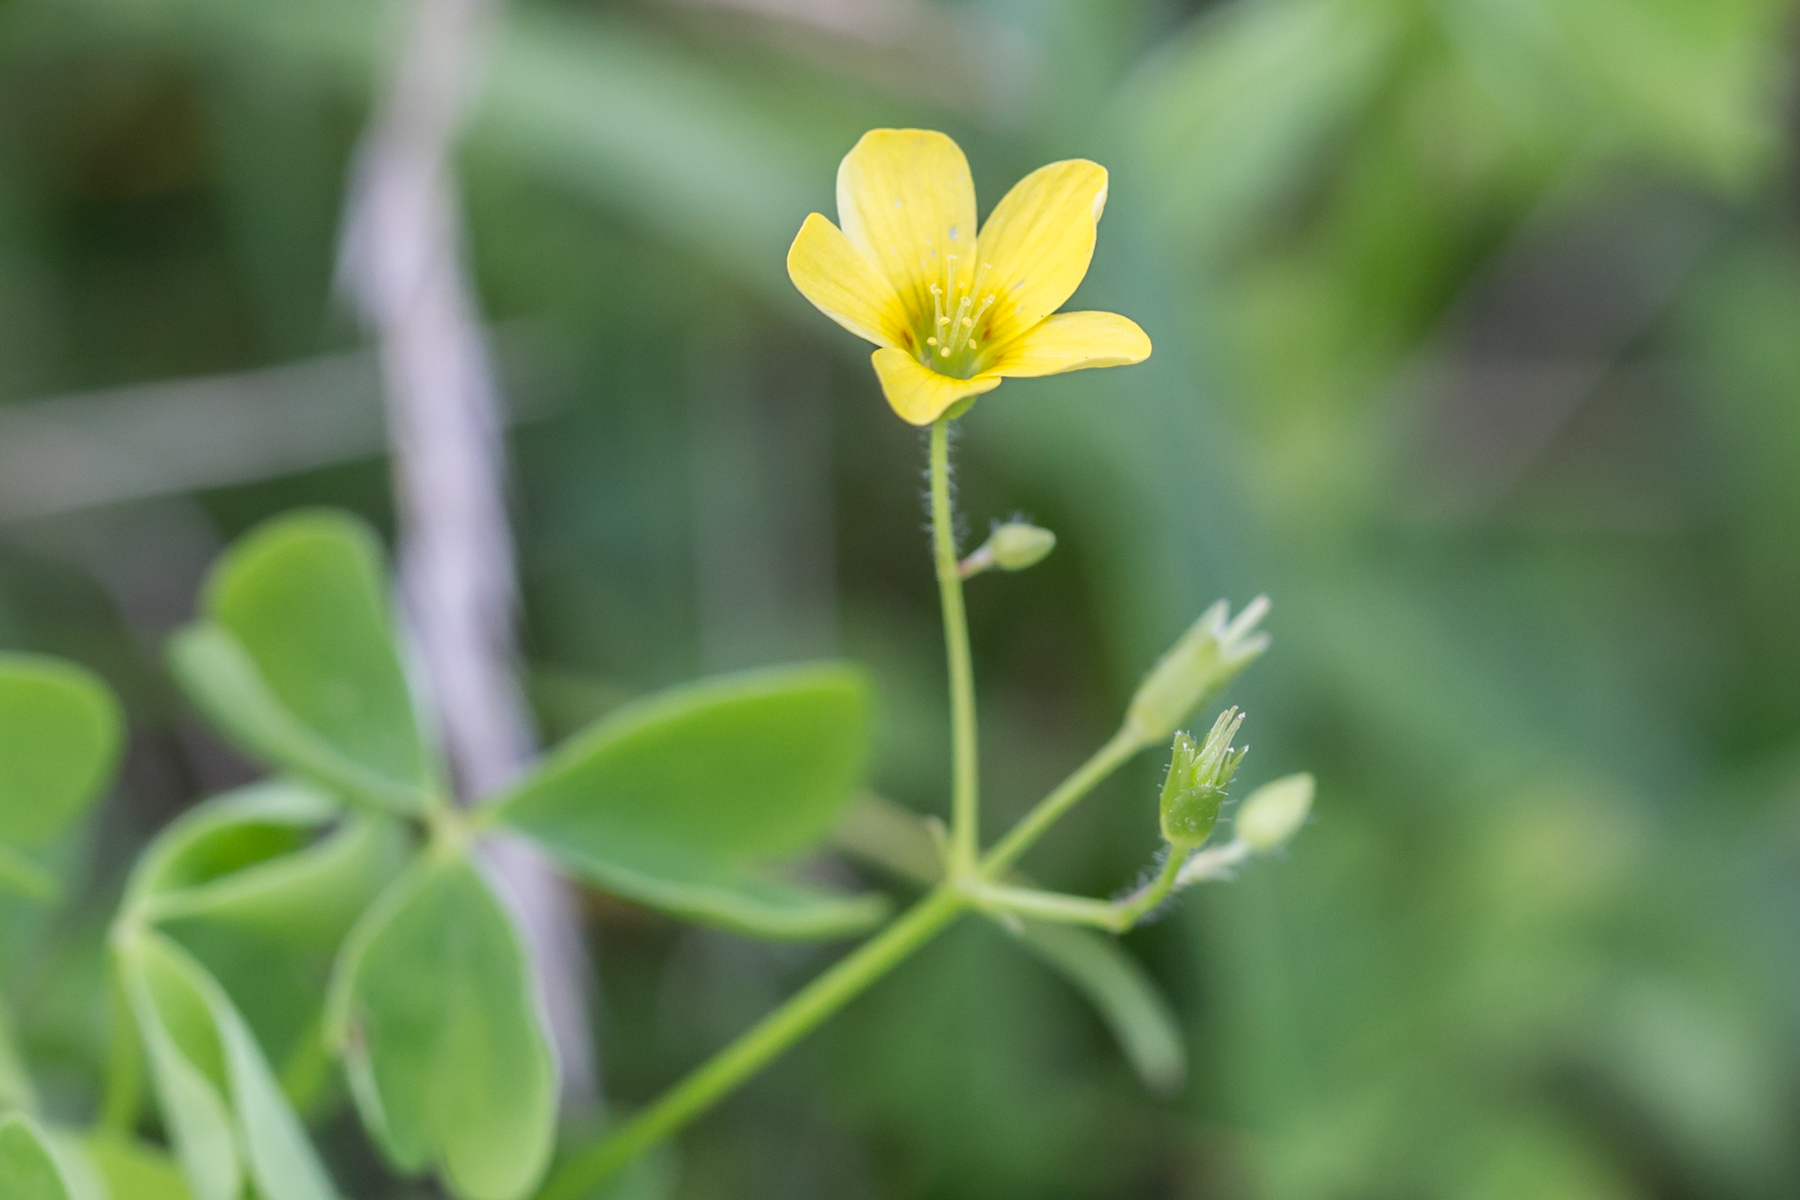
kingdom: Plantae
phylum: Tracheophyta
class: Magnoliopsida
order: Oxalidales
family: Oxalidaceae
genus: Oxalis
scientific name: Oxalis stricta
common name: Upright yellow-sorrel
